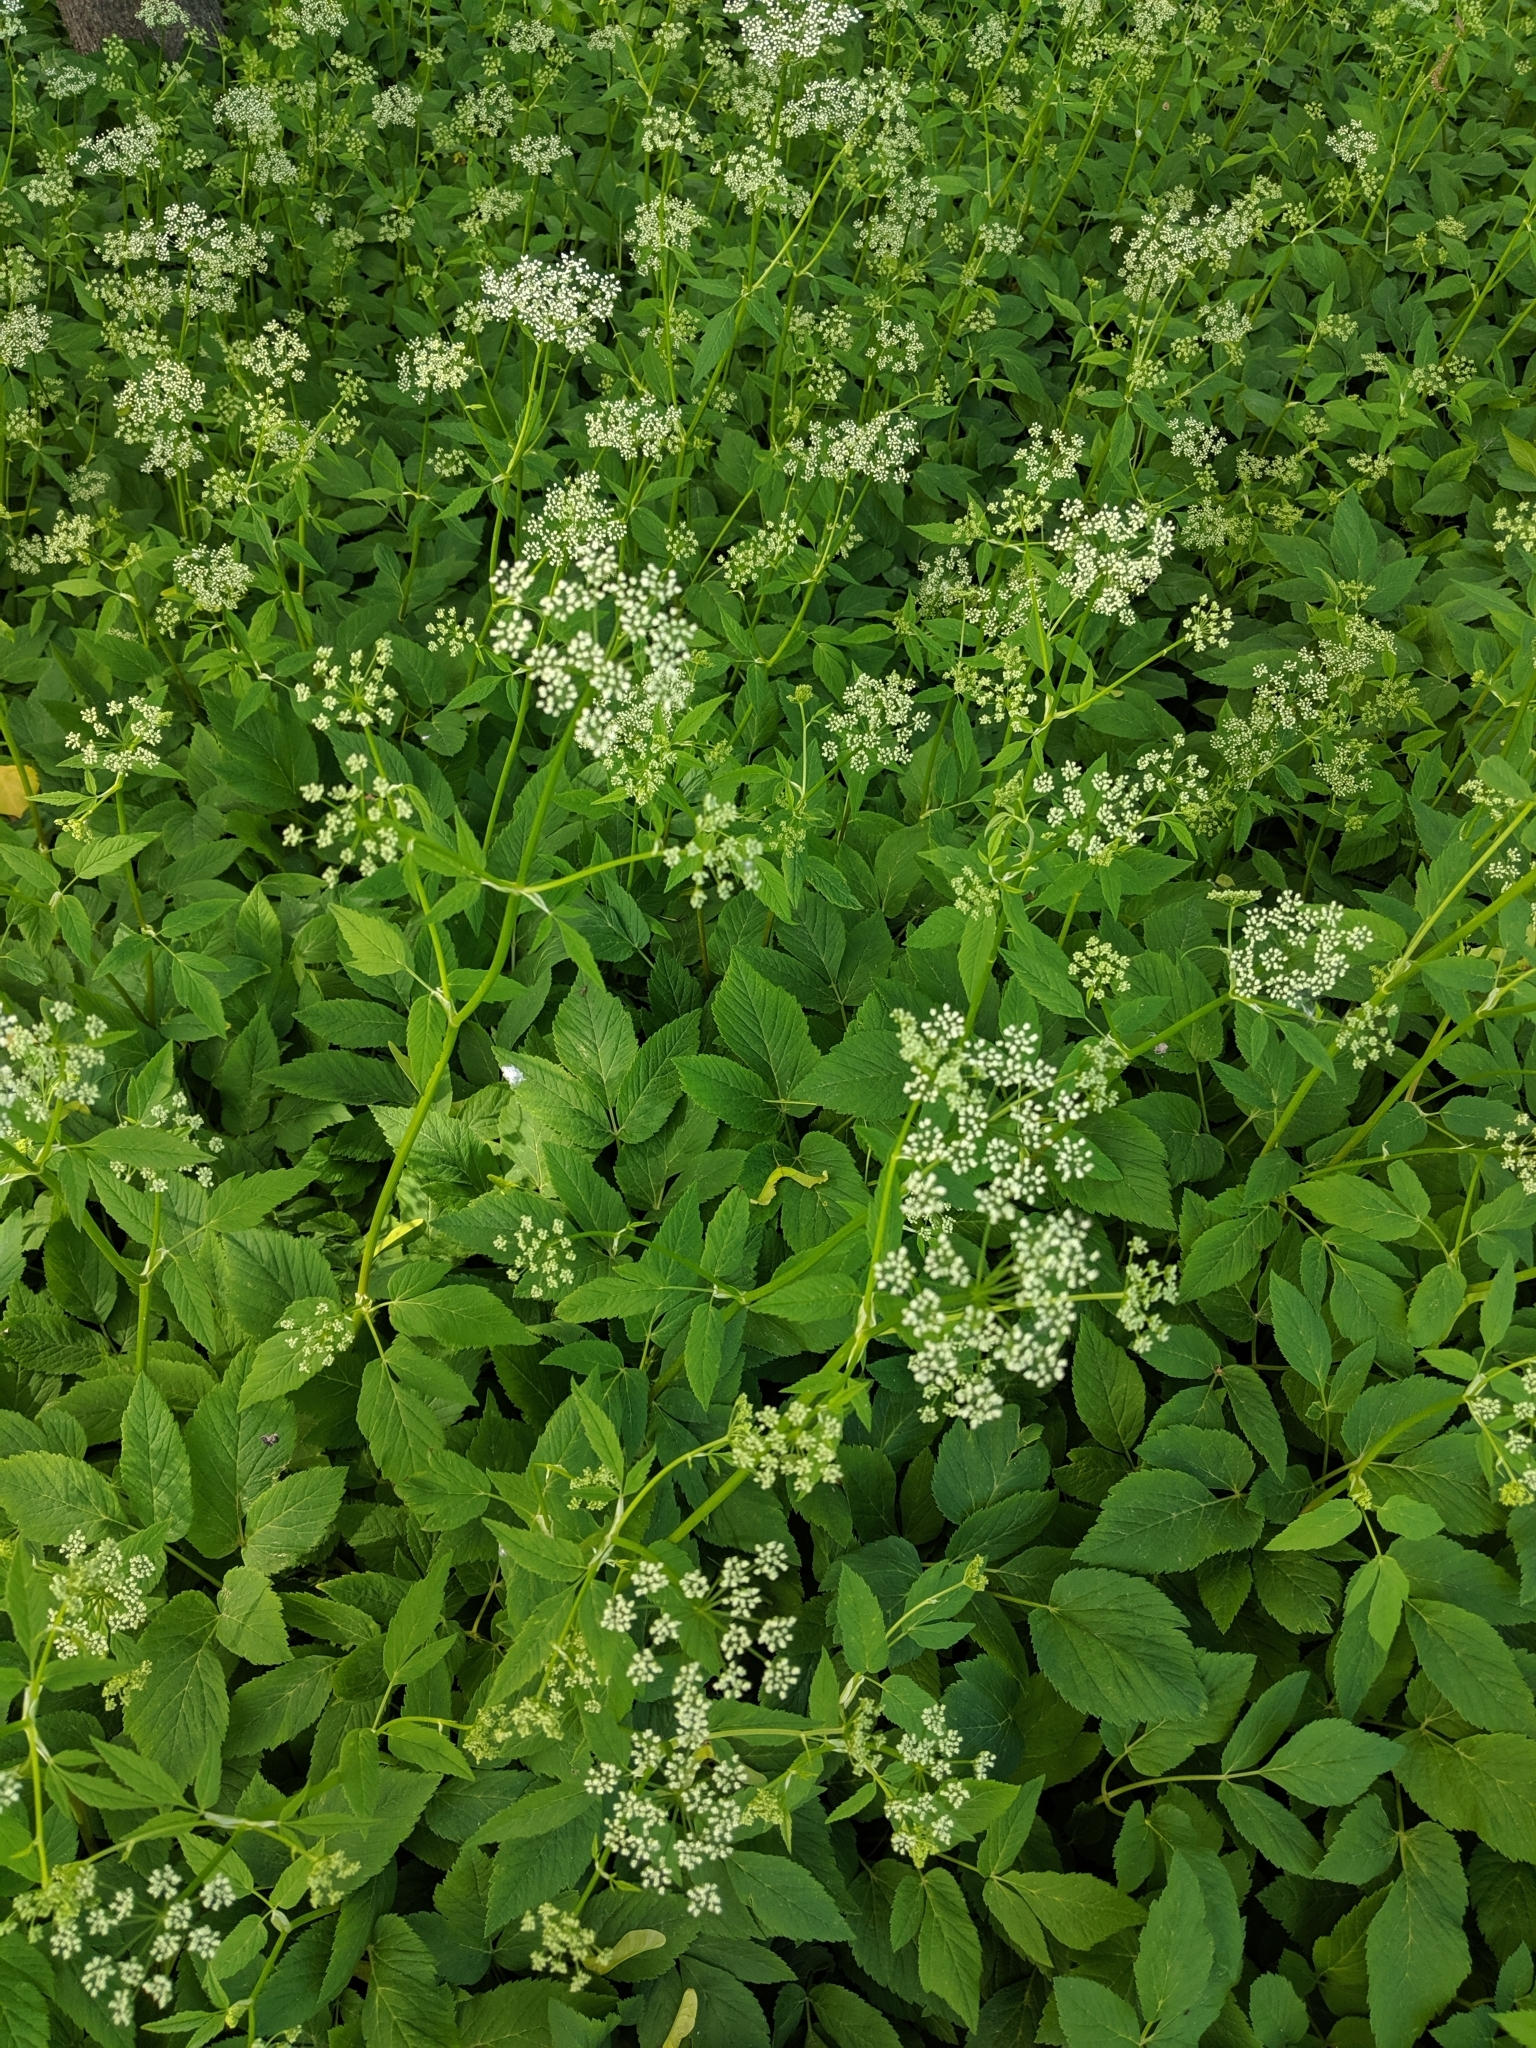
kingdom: Plantae
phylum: Tracheophyta
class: Magnoliopsida
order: Apiales
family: Apiaceae
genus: Aegopodium
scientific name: Aegopodium podagraria
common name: Ground-elder
